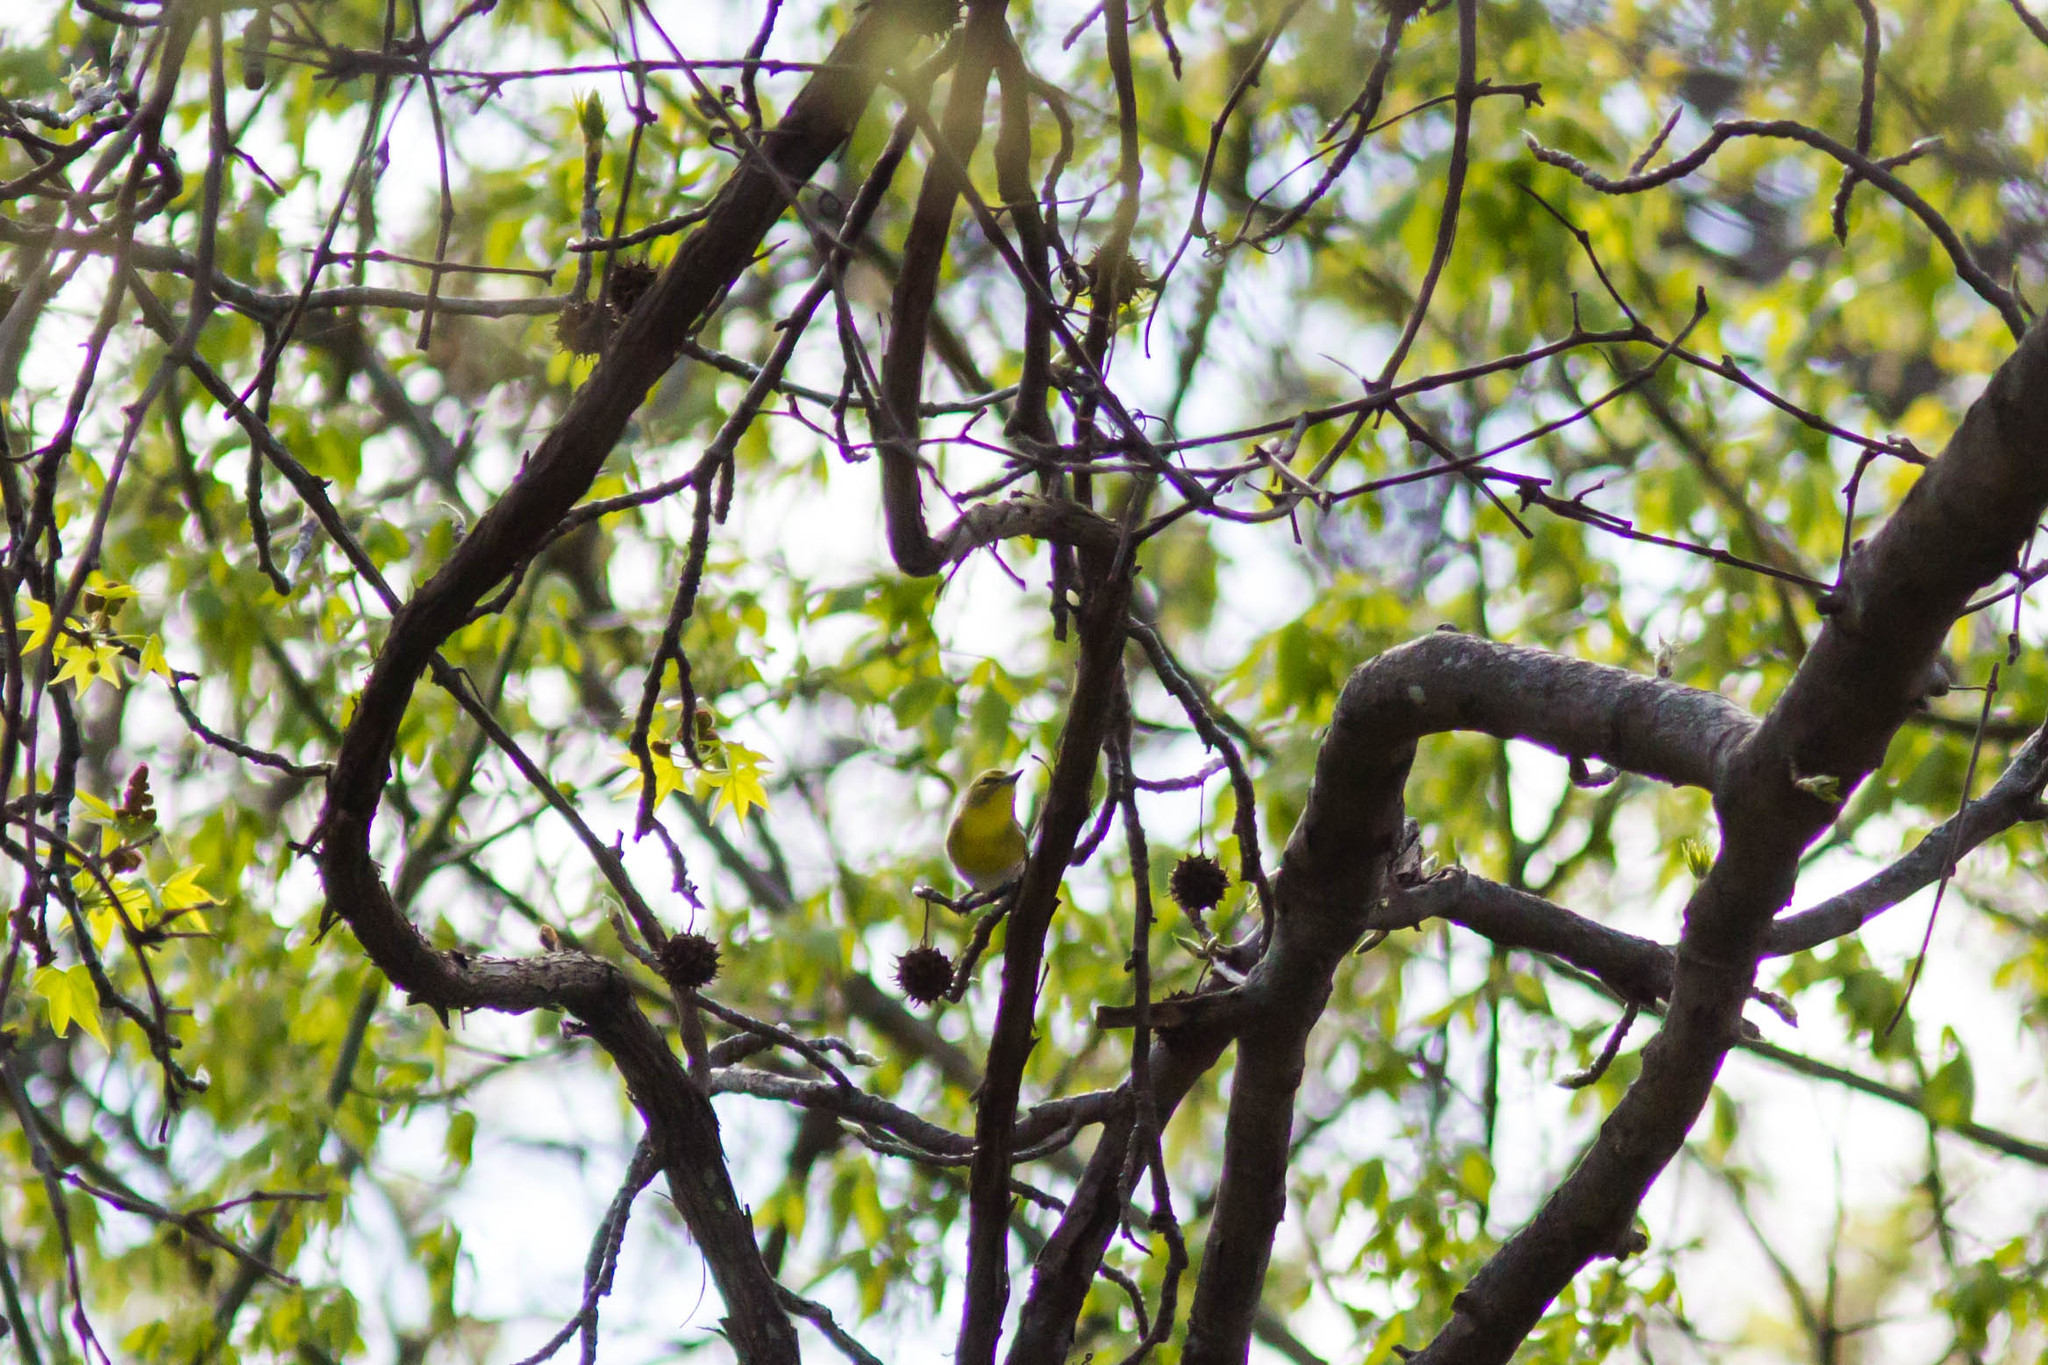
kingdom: Animalia
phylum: Chordata
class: Aves
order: Passeriformes
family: Parulidae
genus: Setophaga
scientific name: Setophaga pinus
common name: Pine warbler
